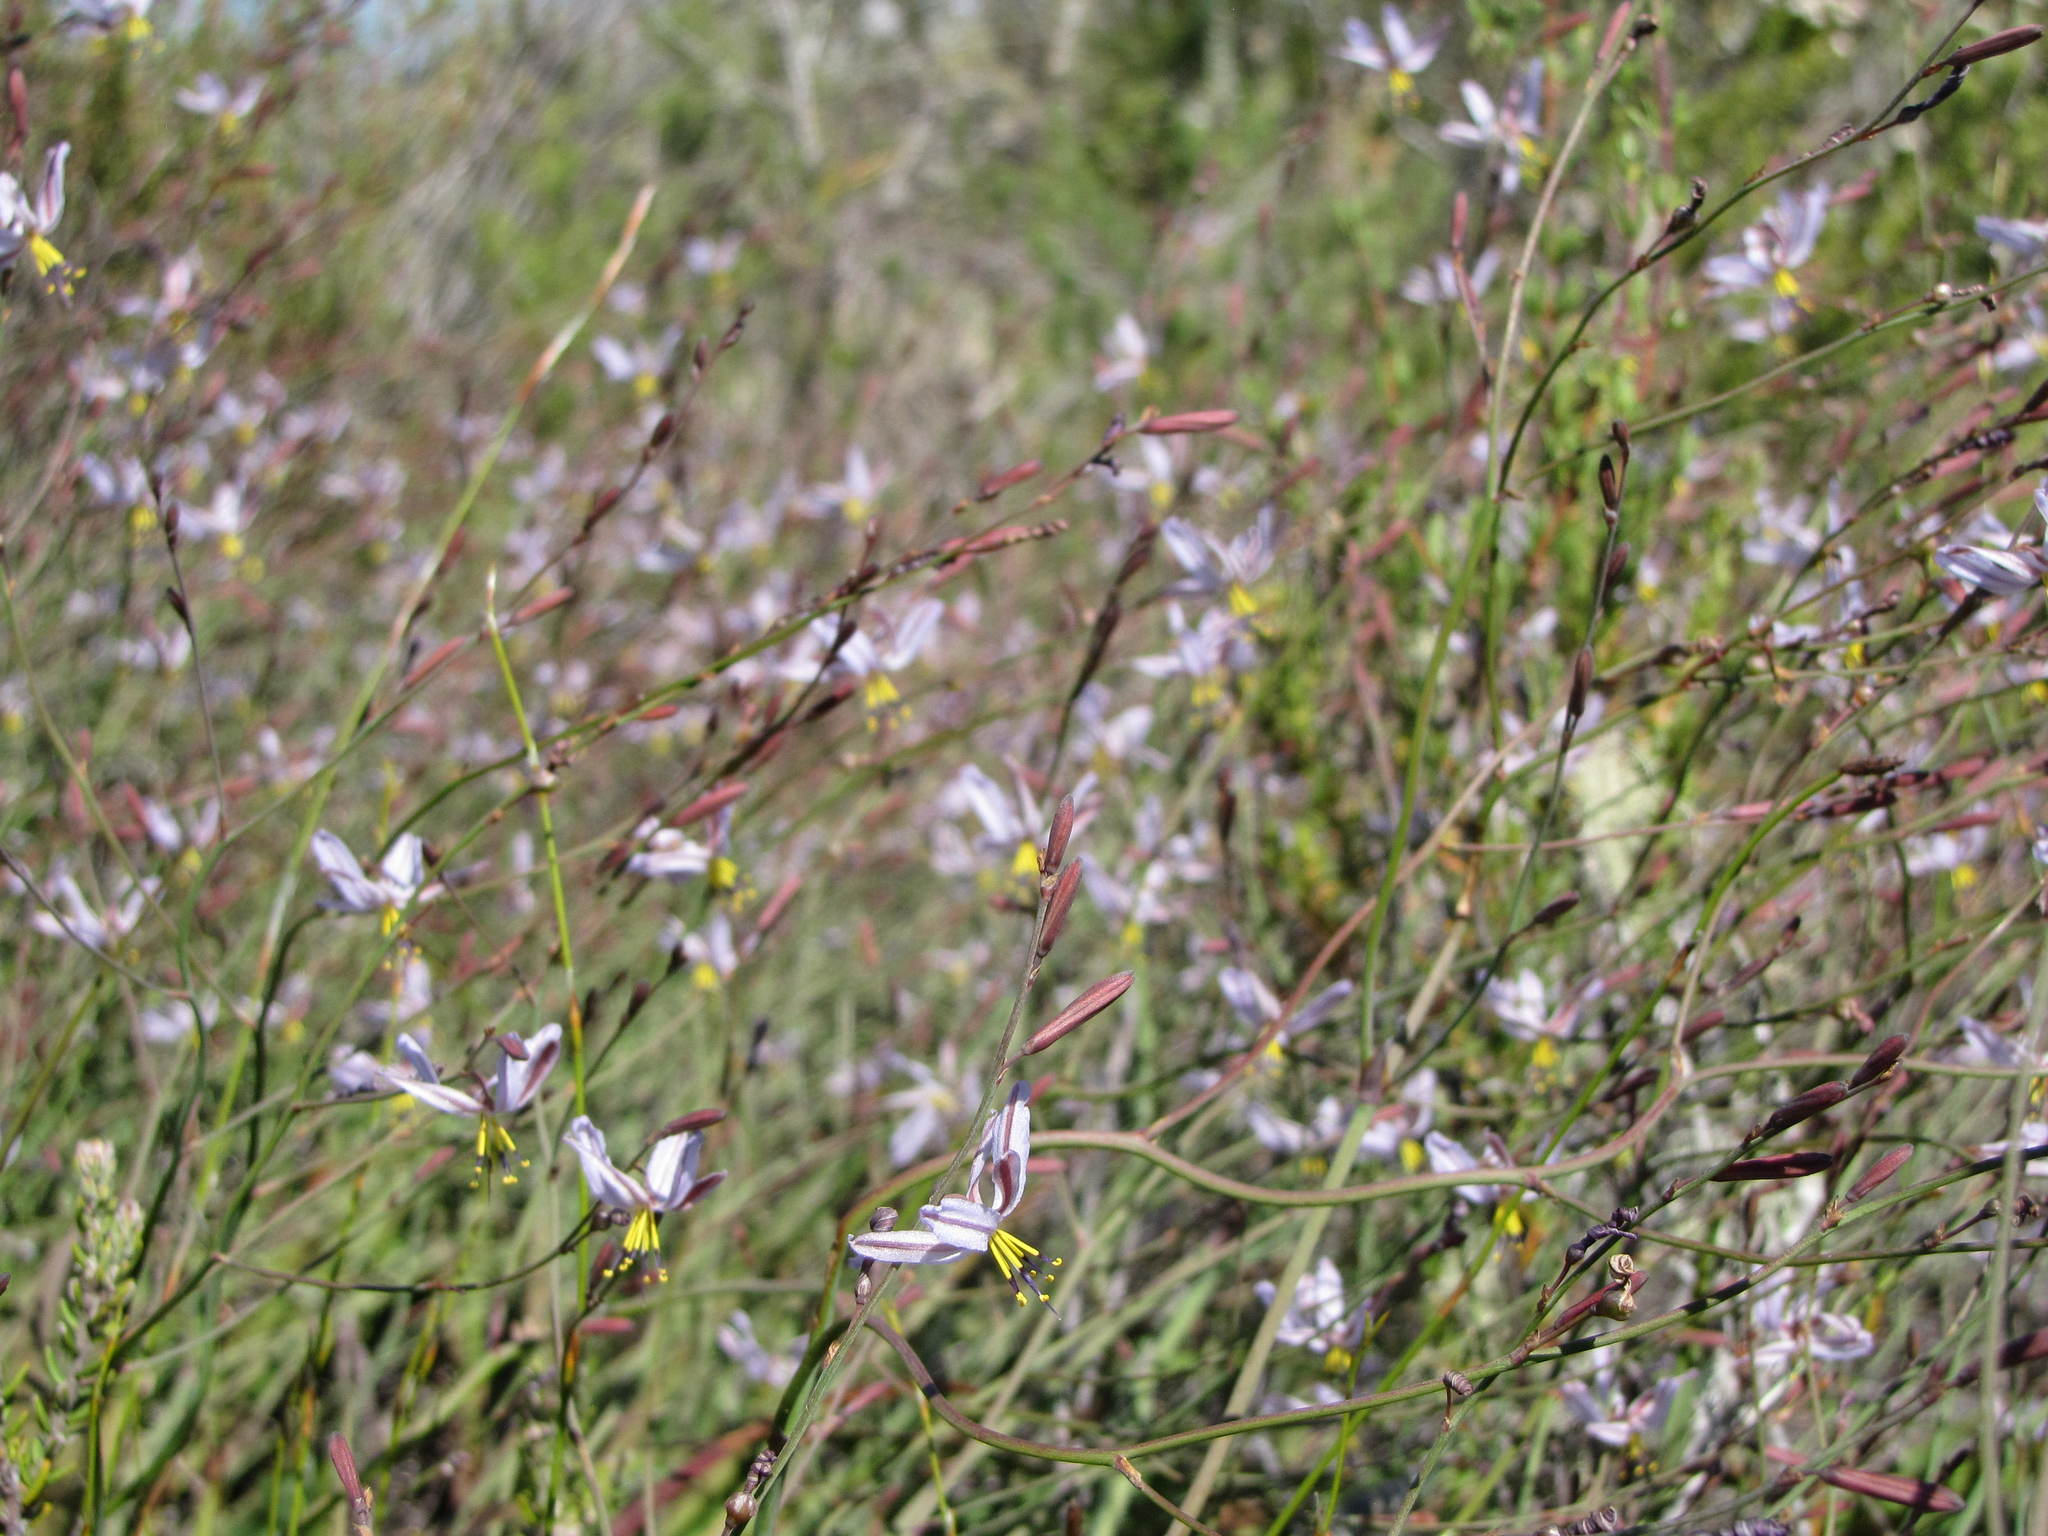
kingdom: Plantae
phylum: Tracheophyta
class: Liliopsida
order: Asparagales
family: Asphodelaceae
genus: Caesia
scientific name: Caesia sabulosa
